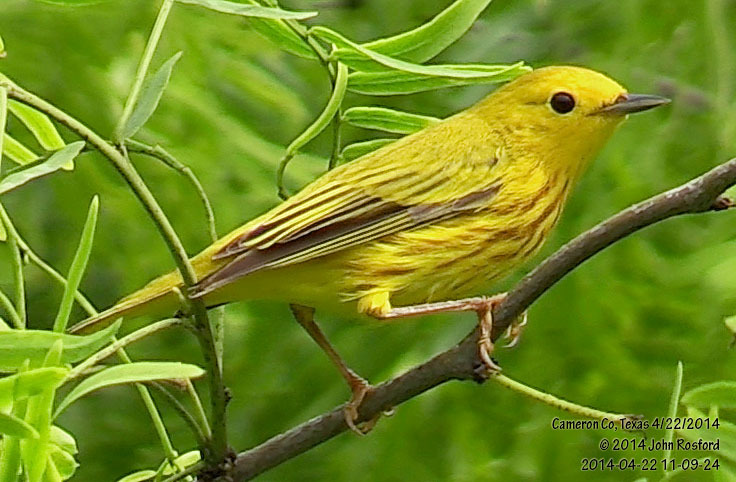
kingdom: Animalia
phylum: Chordata
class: Aves
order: Passeriformes
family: Parulidae
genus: Setophaga
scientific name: Setophaga petechia
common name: Yellow warbler
